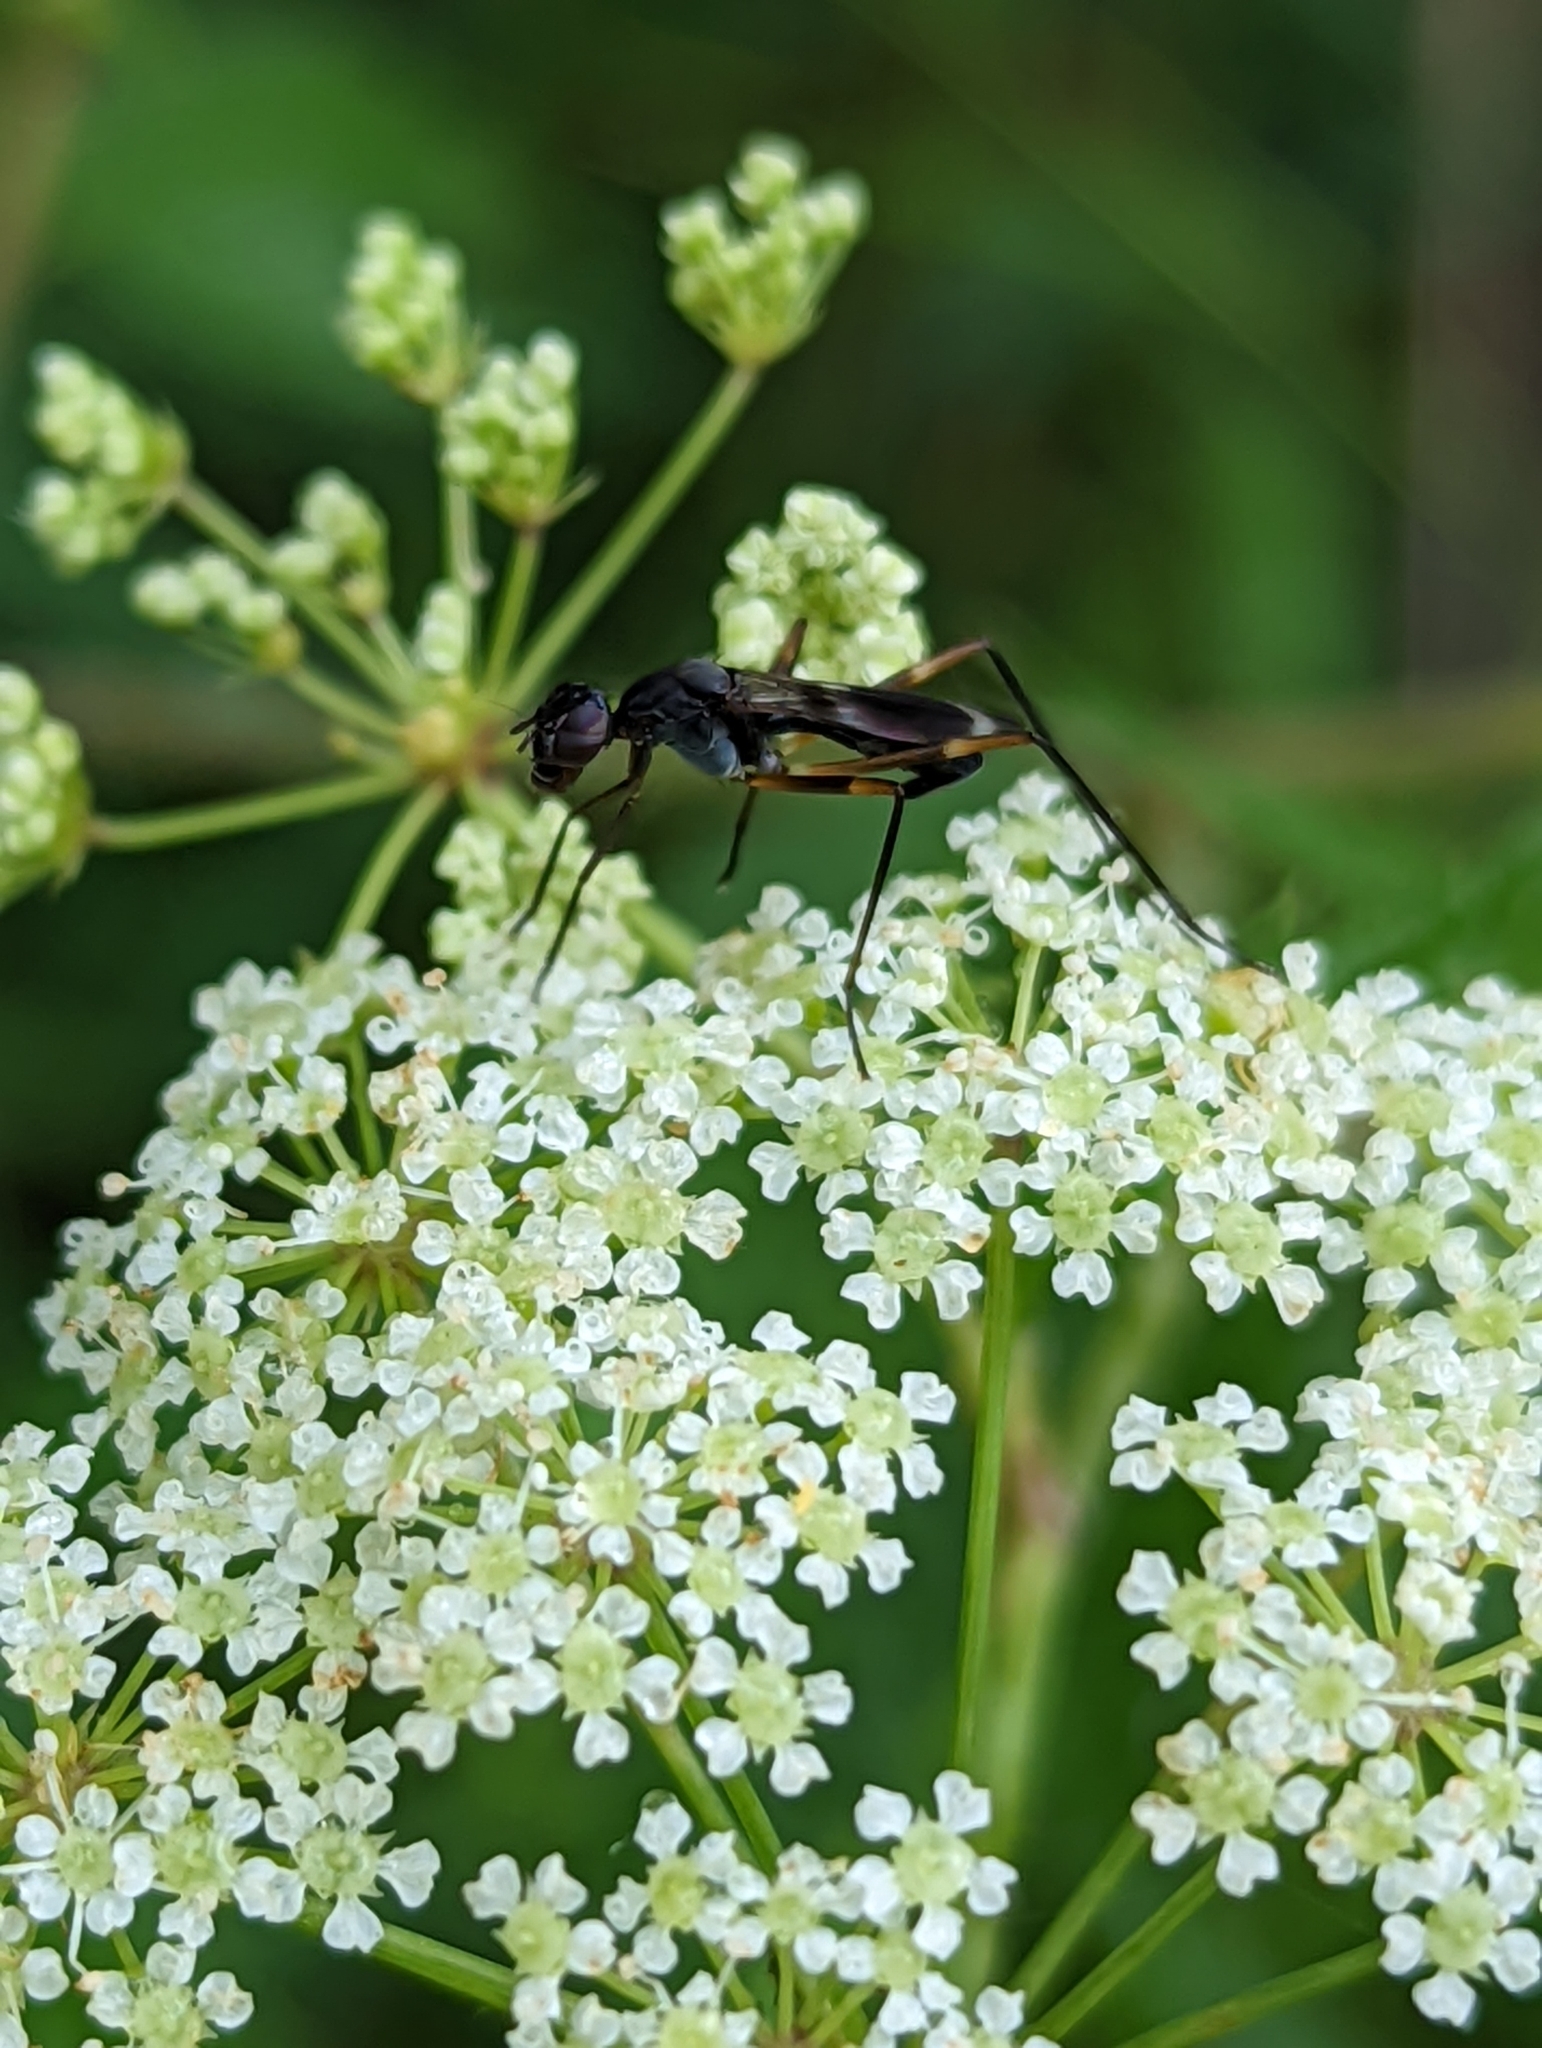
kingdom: Animalia
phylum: Arthropoda
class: Insecta
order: Diptera
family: Micropezidae
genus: Taeniaptera
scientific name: Taeniaptera trivittata
